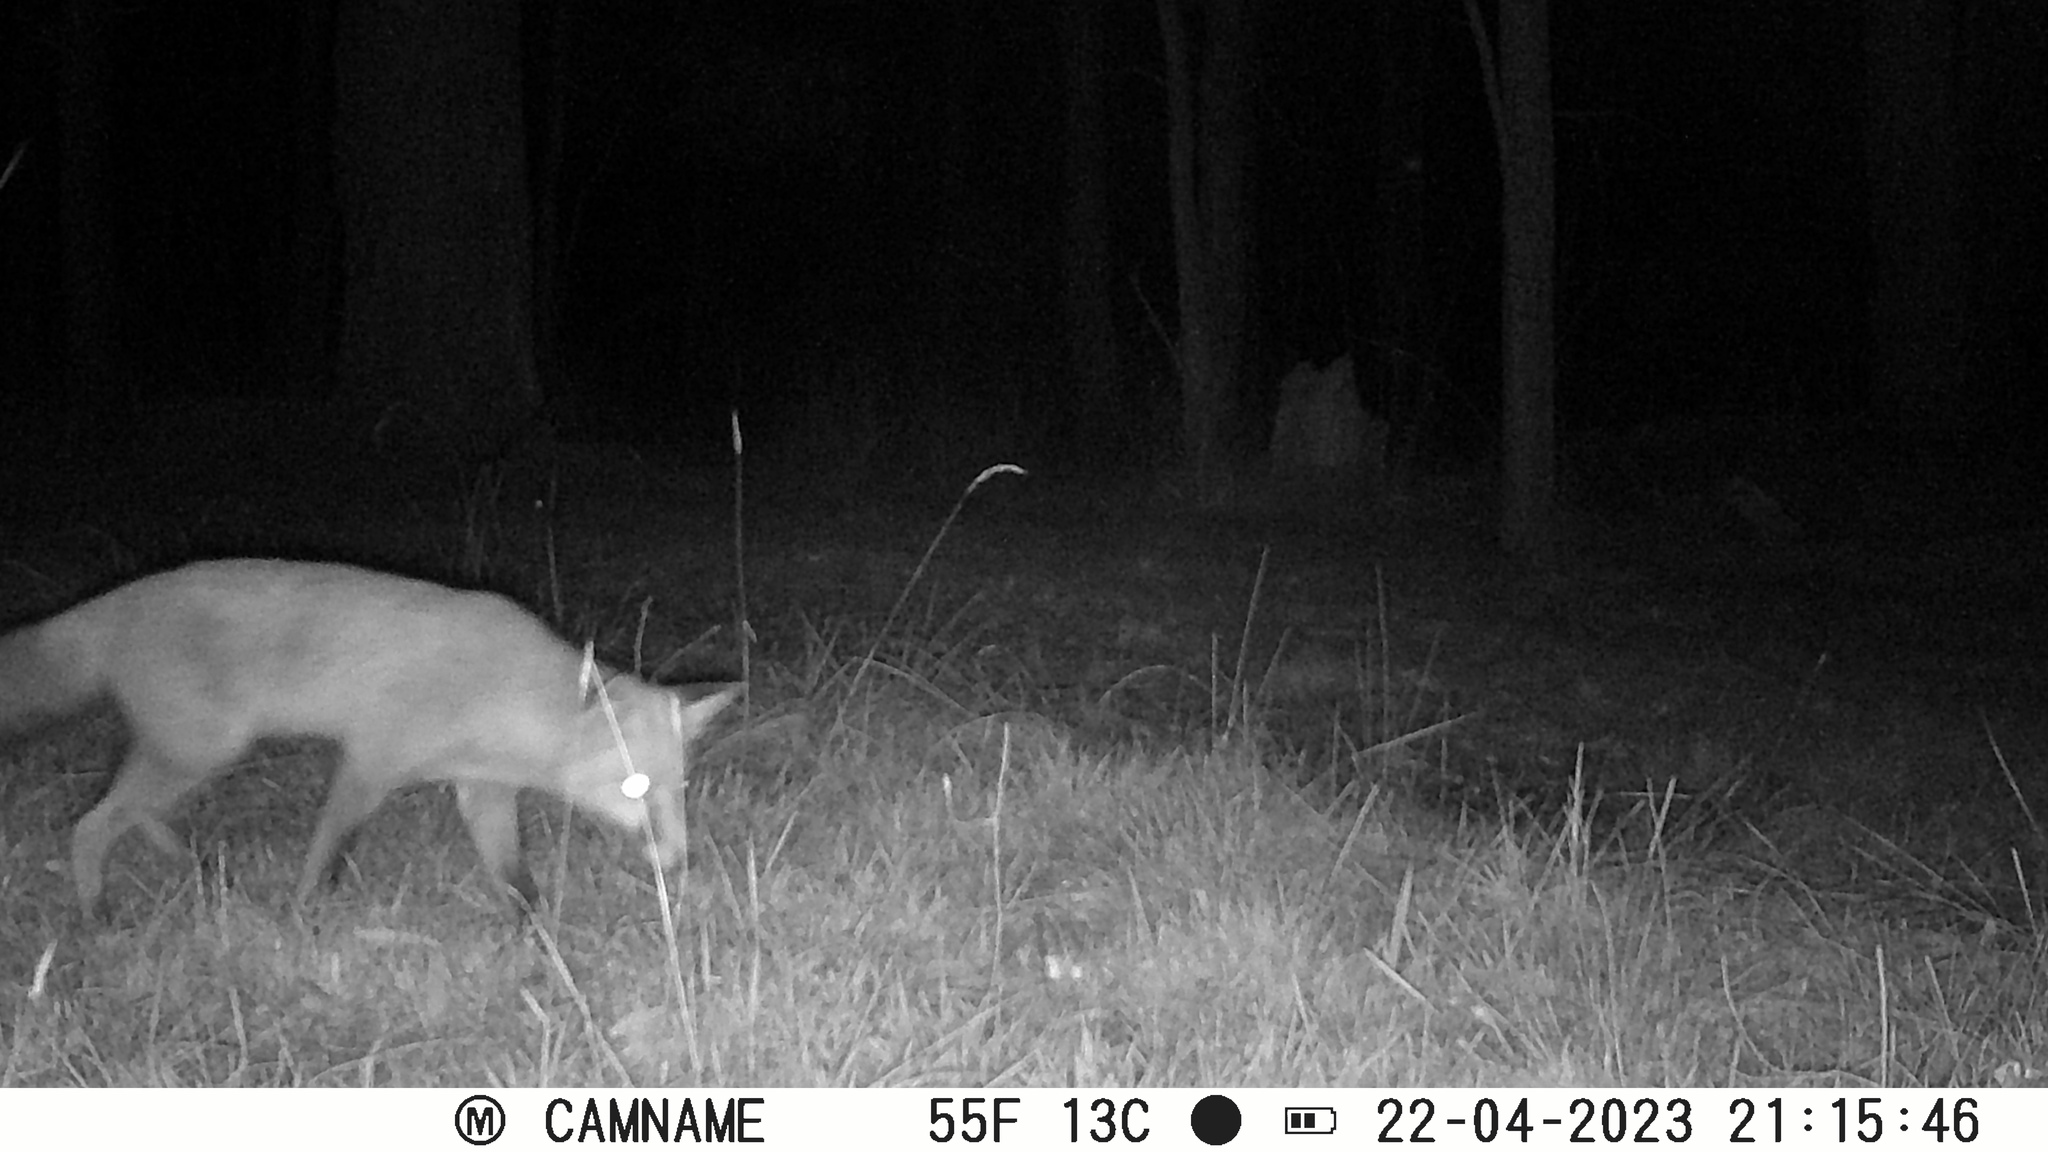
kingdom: Animalia
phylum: Chordata
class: Mammalia
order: Carnivora
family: Canidae
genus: Vulpes
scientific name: Vulpes vulpes
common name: Red fox
